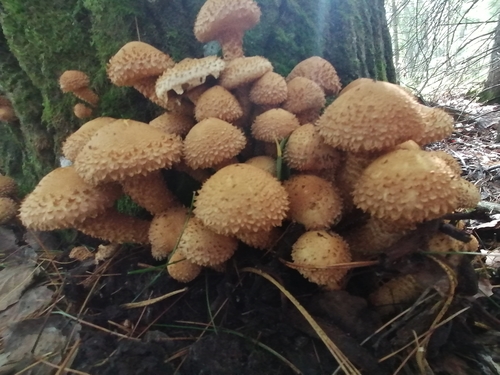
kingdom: Fungi
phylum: Basidiomycota
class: Agaricomycetes
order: Agaricales
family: Strophariaceae
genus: Pholiota
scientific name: Pholiota squarrosa
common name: Shaggy pholiota
